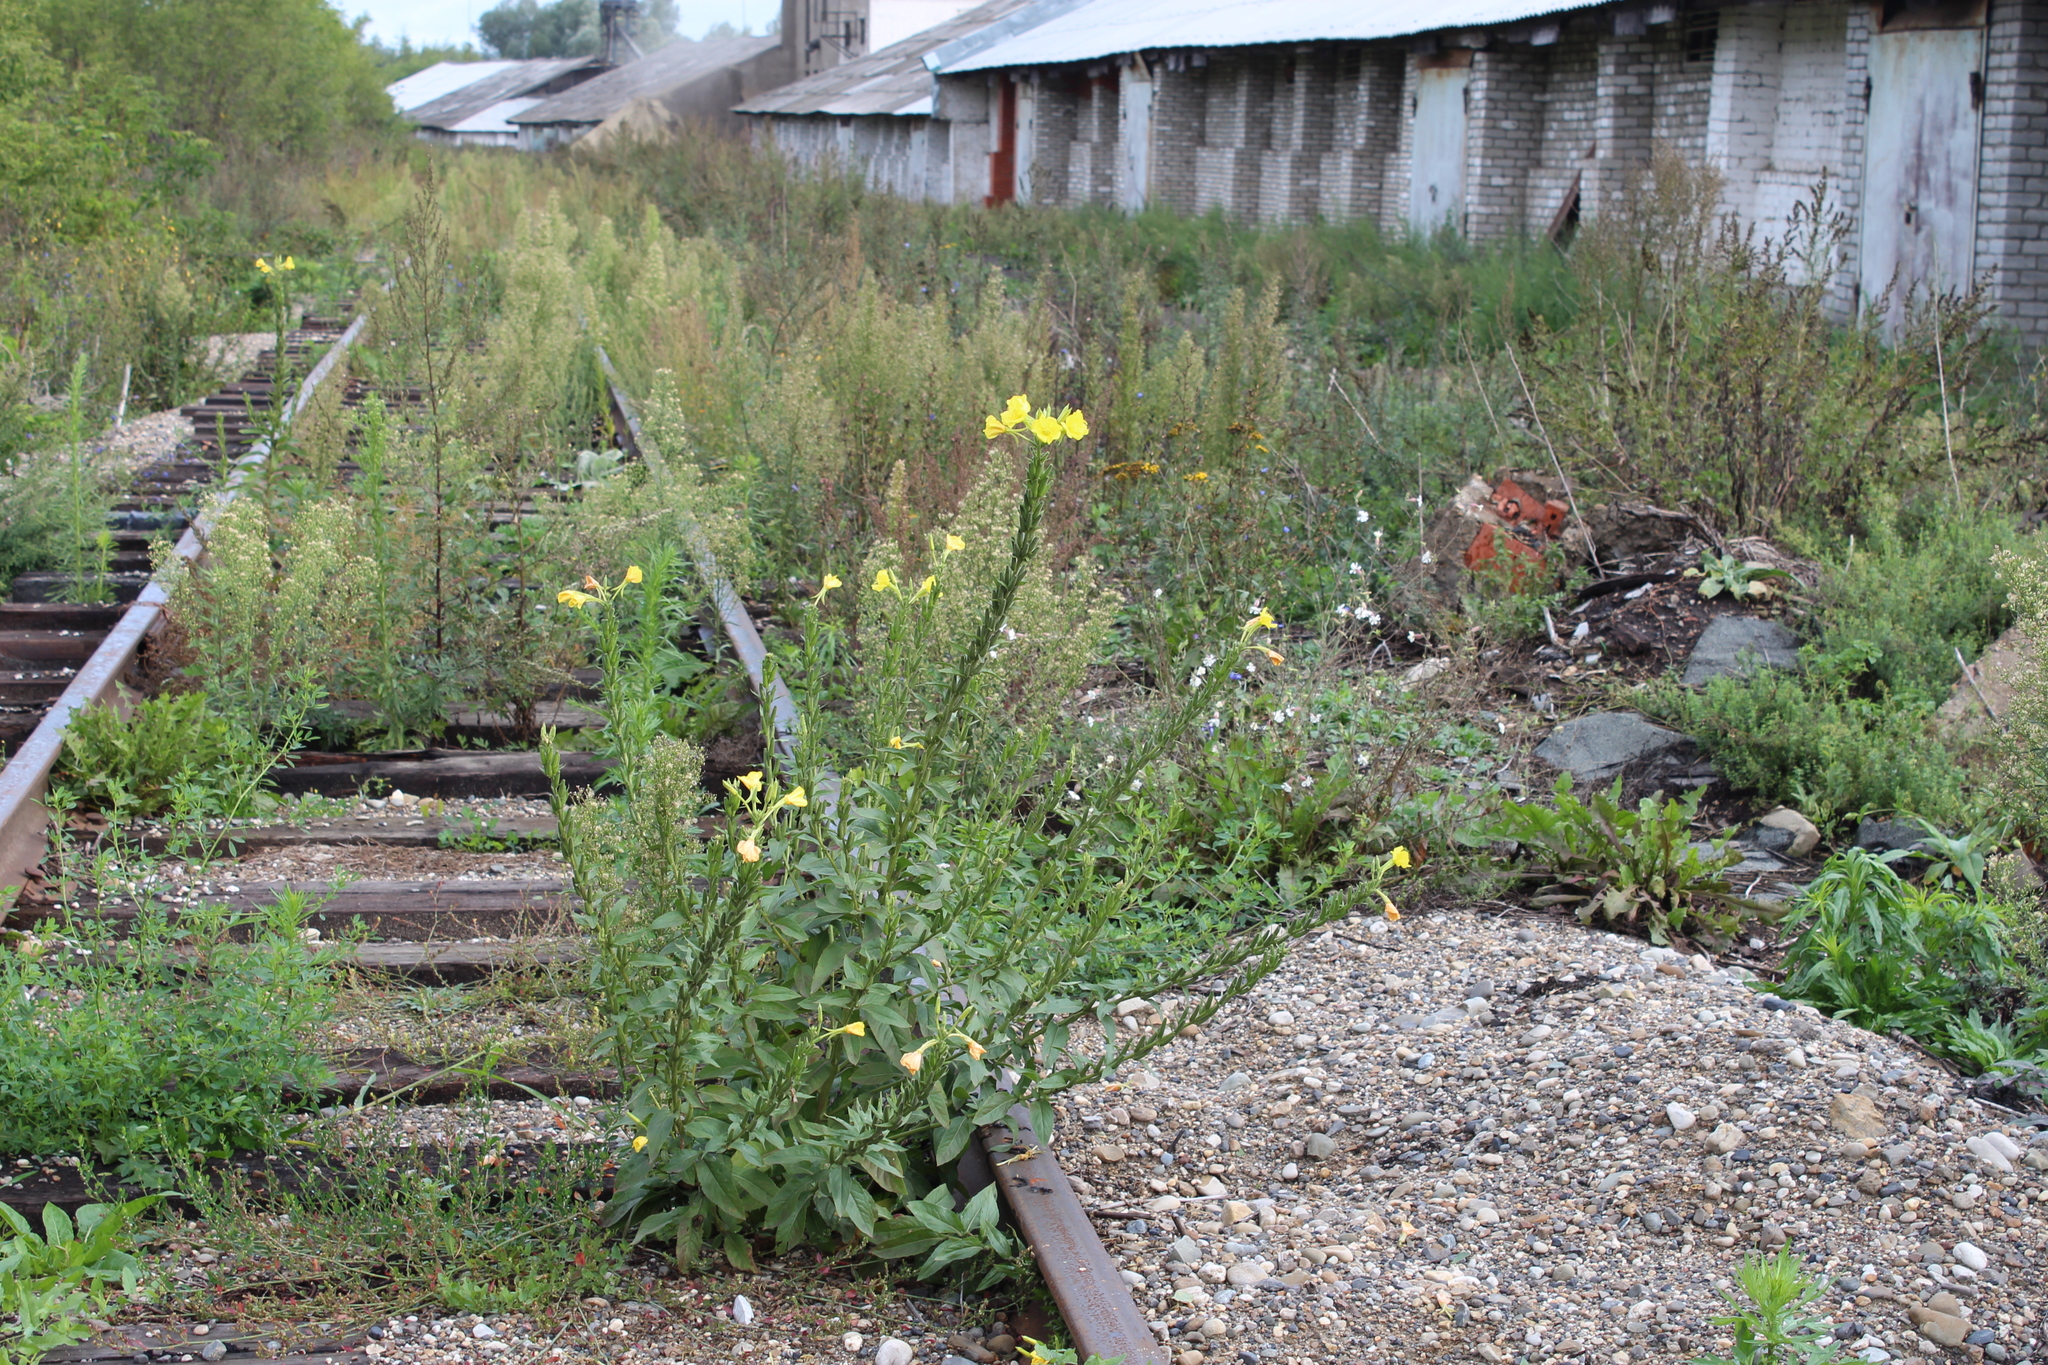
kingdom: Plantae
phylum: Tracheophyta
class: Magnoliopsida
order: Myrtales
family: Onagraceae
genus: Oenothera
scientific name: Oenothera biennis
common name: Common evening-primrose
